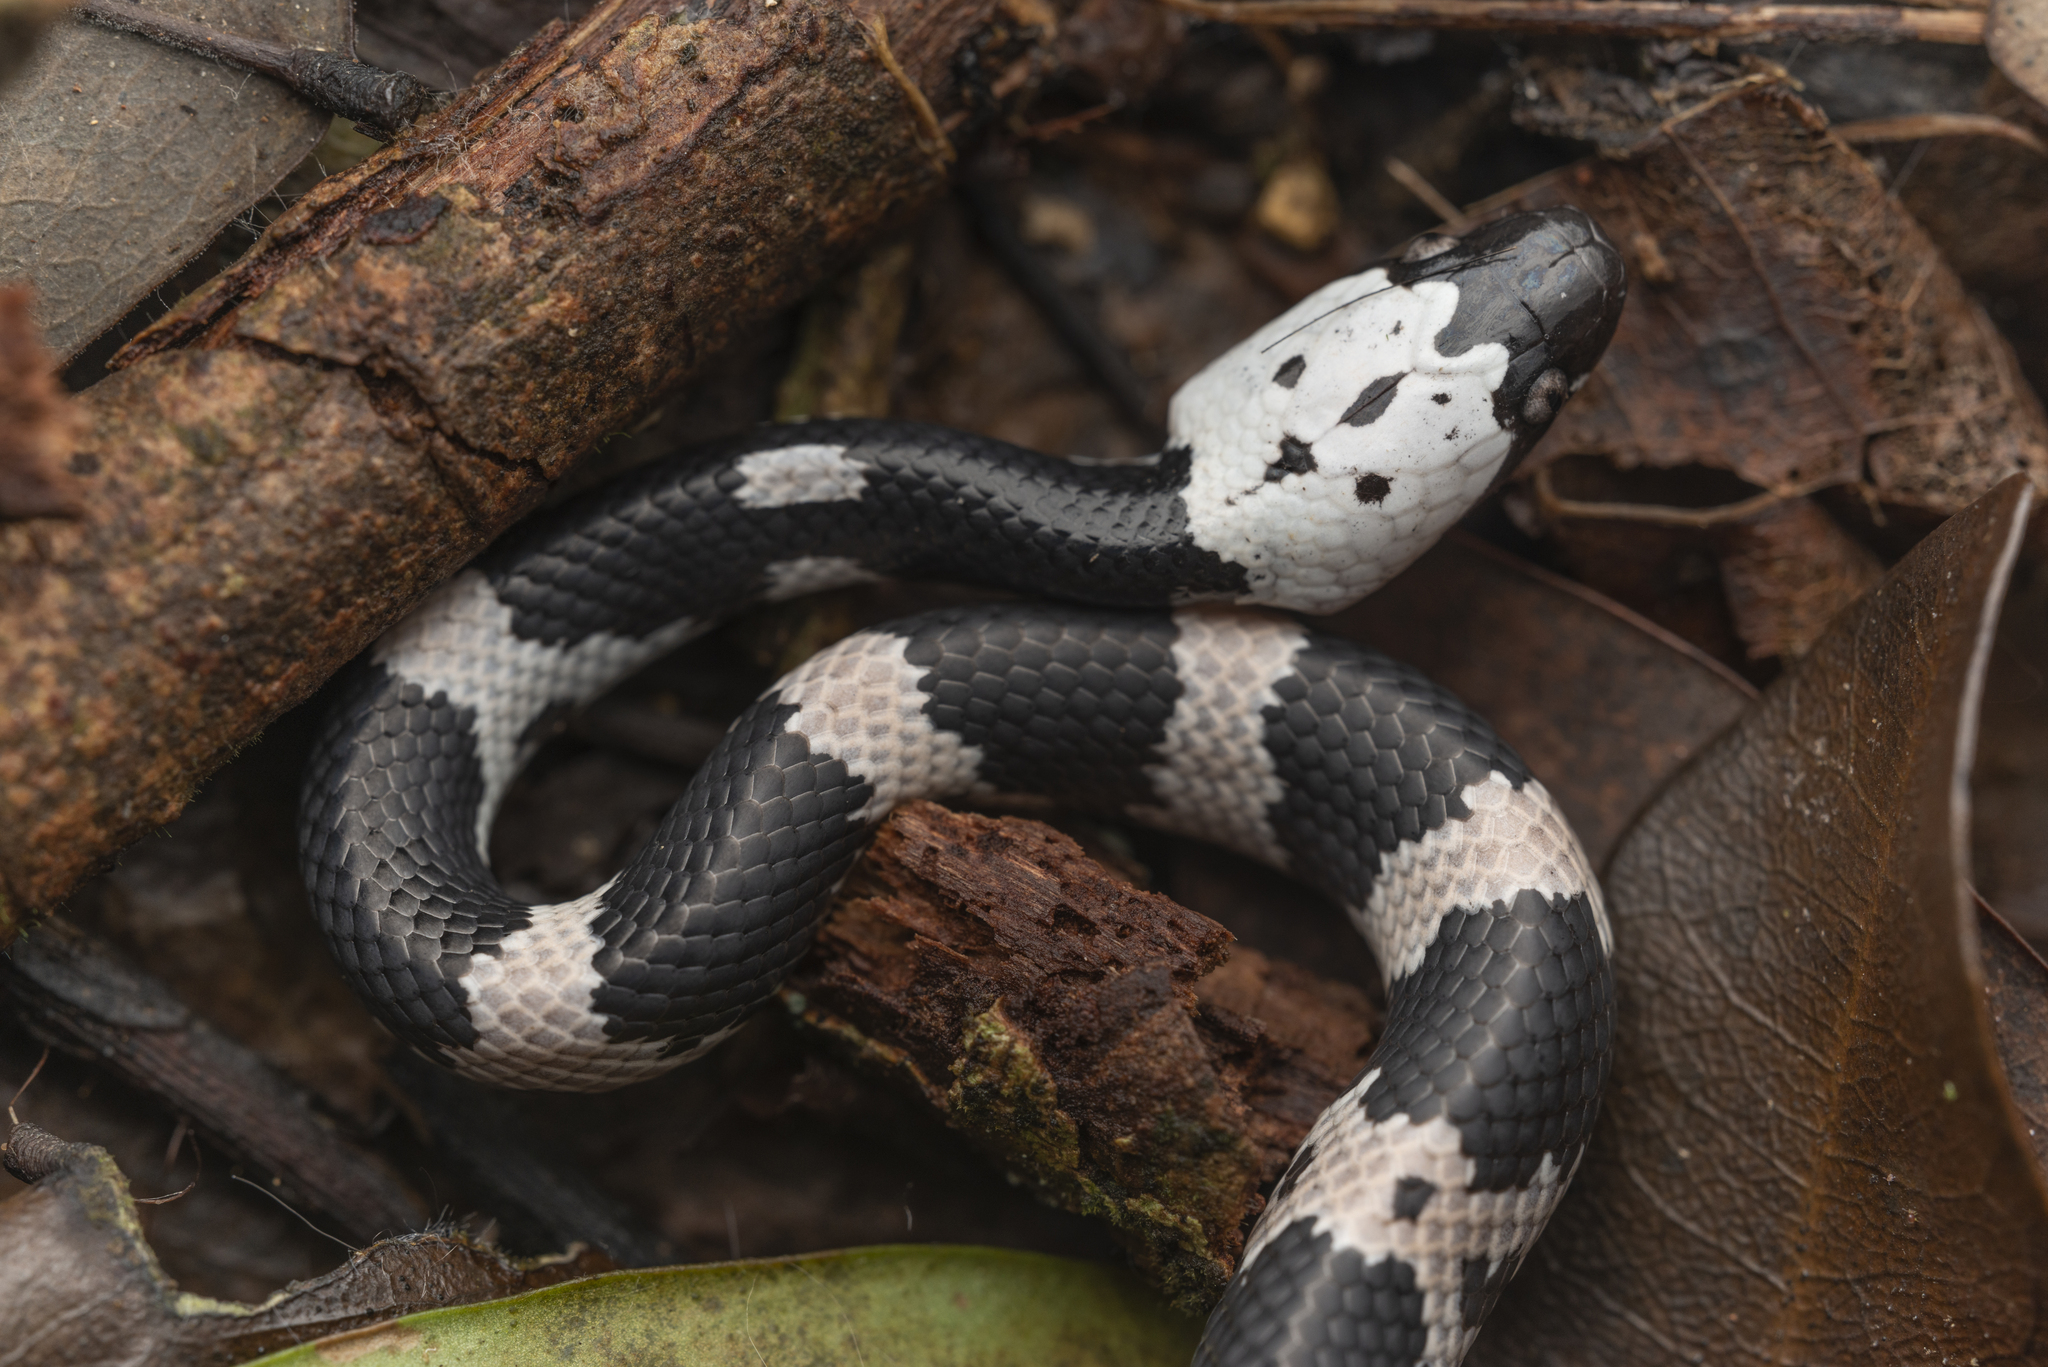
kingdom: Animalia
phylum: Chordata
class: Squamata
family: Colubridae
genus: Lycodon
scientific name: Lycodon futsingensis
